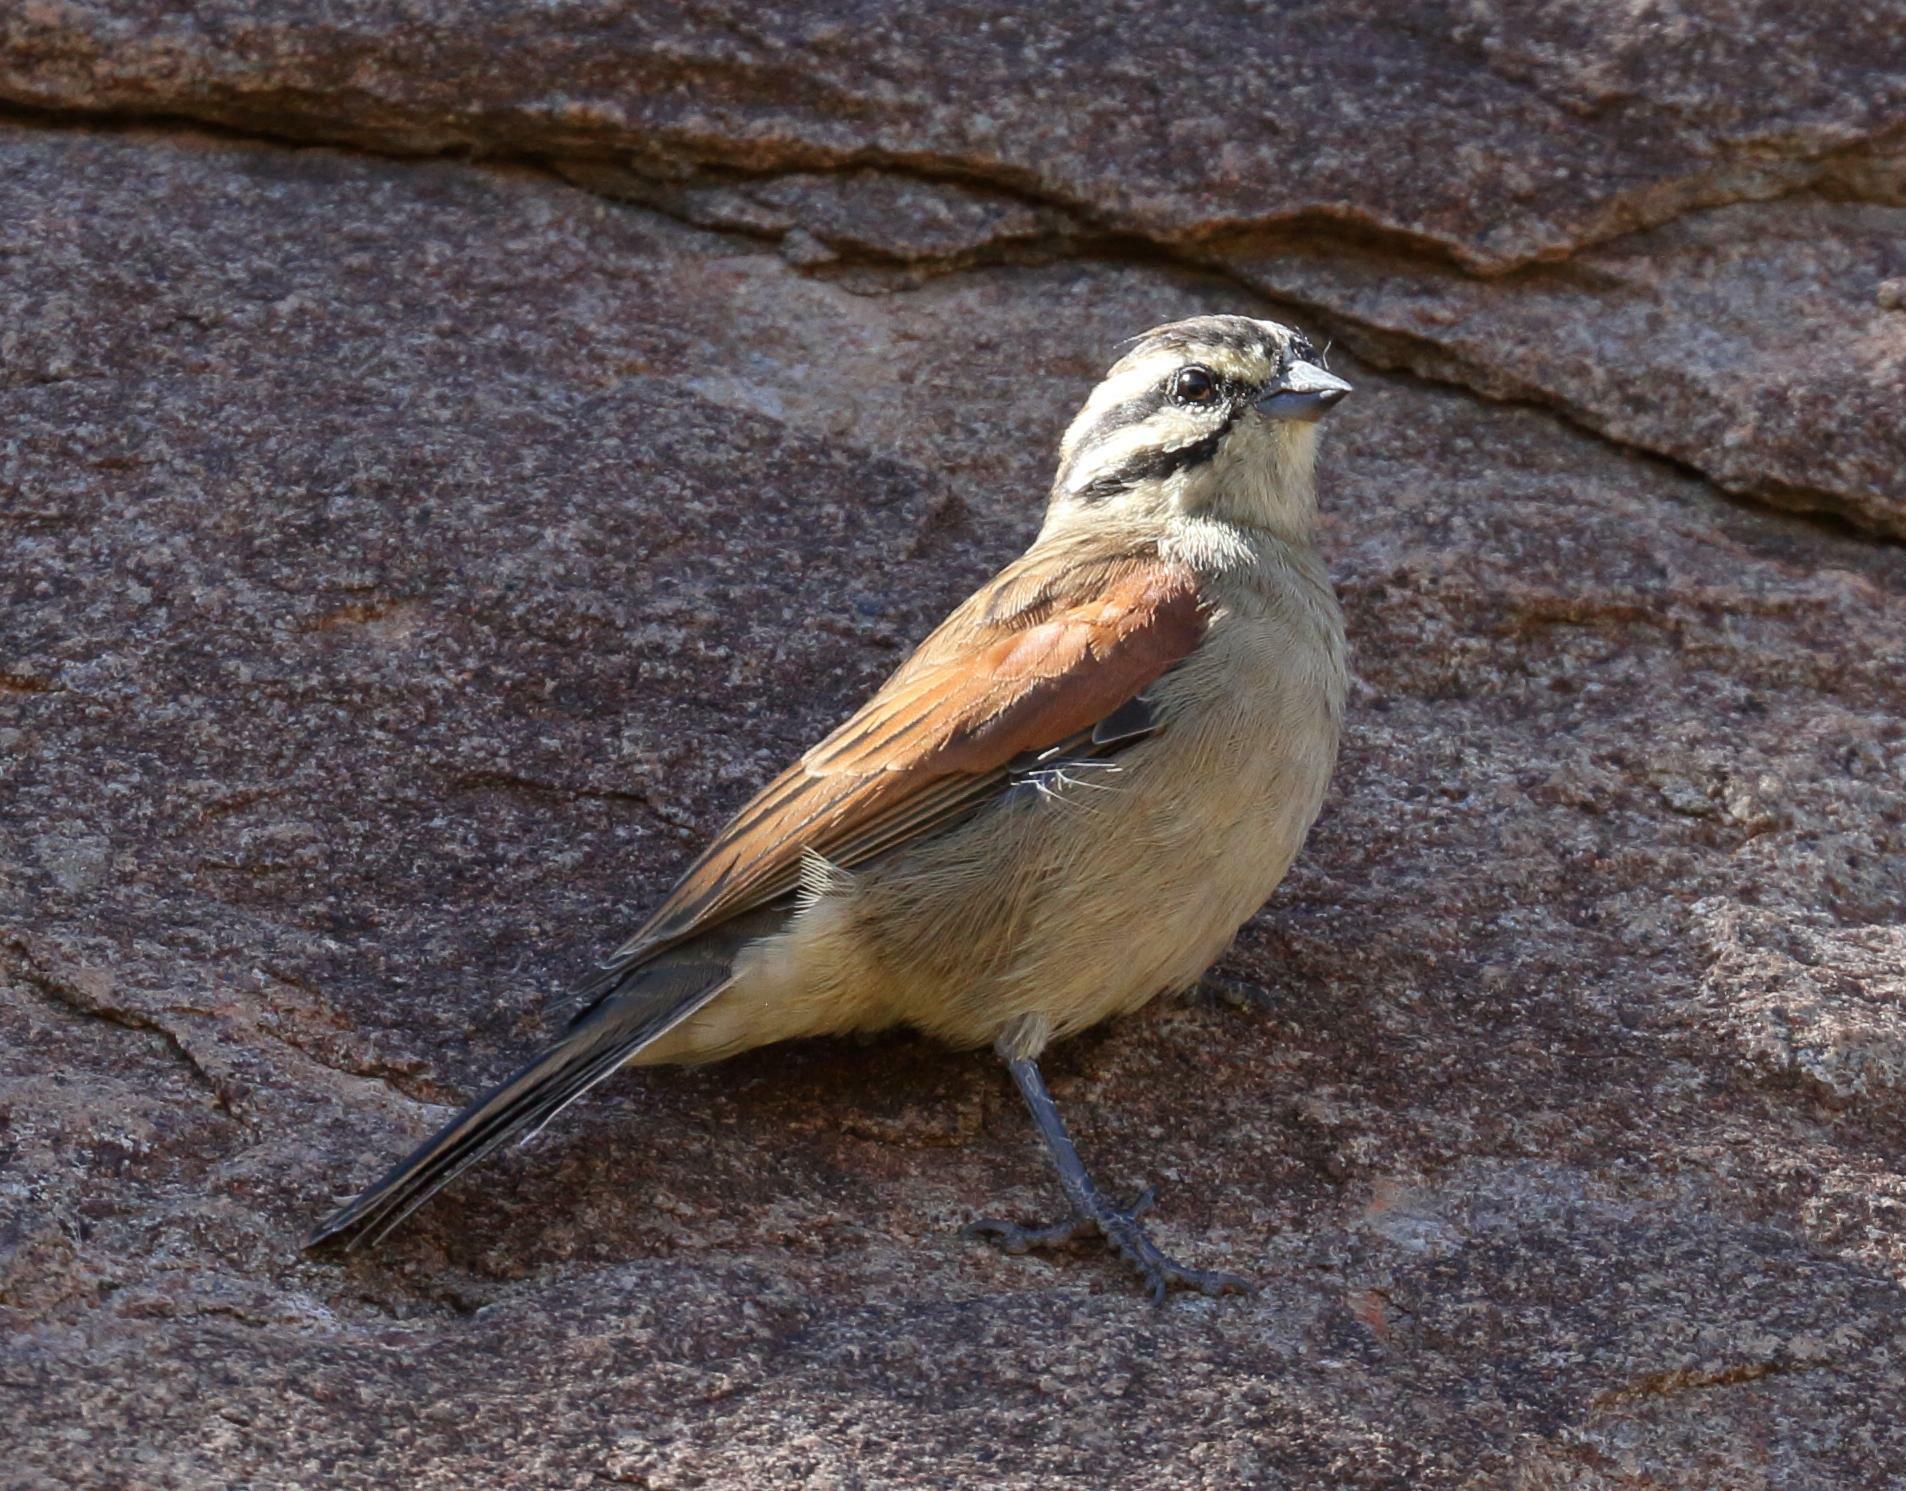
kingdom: Animalia
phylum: Chordata
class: Aves
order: Passeriformes
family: Emberizidae
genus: Emberiza
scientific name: Emberiza capensis
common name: Cape bunting
